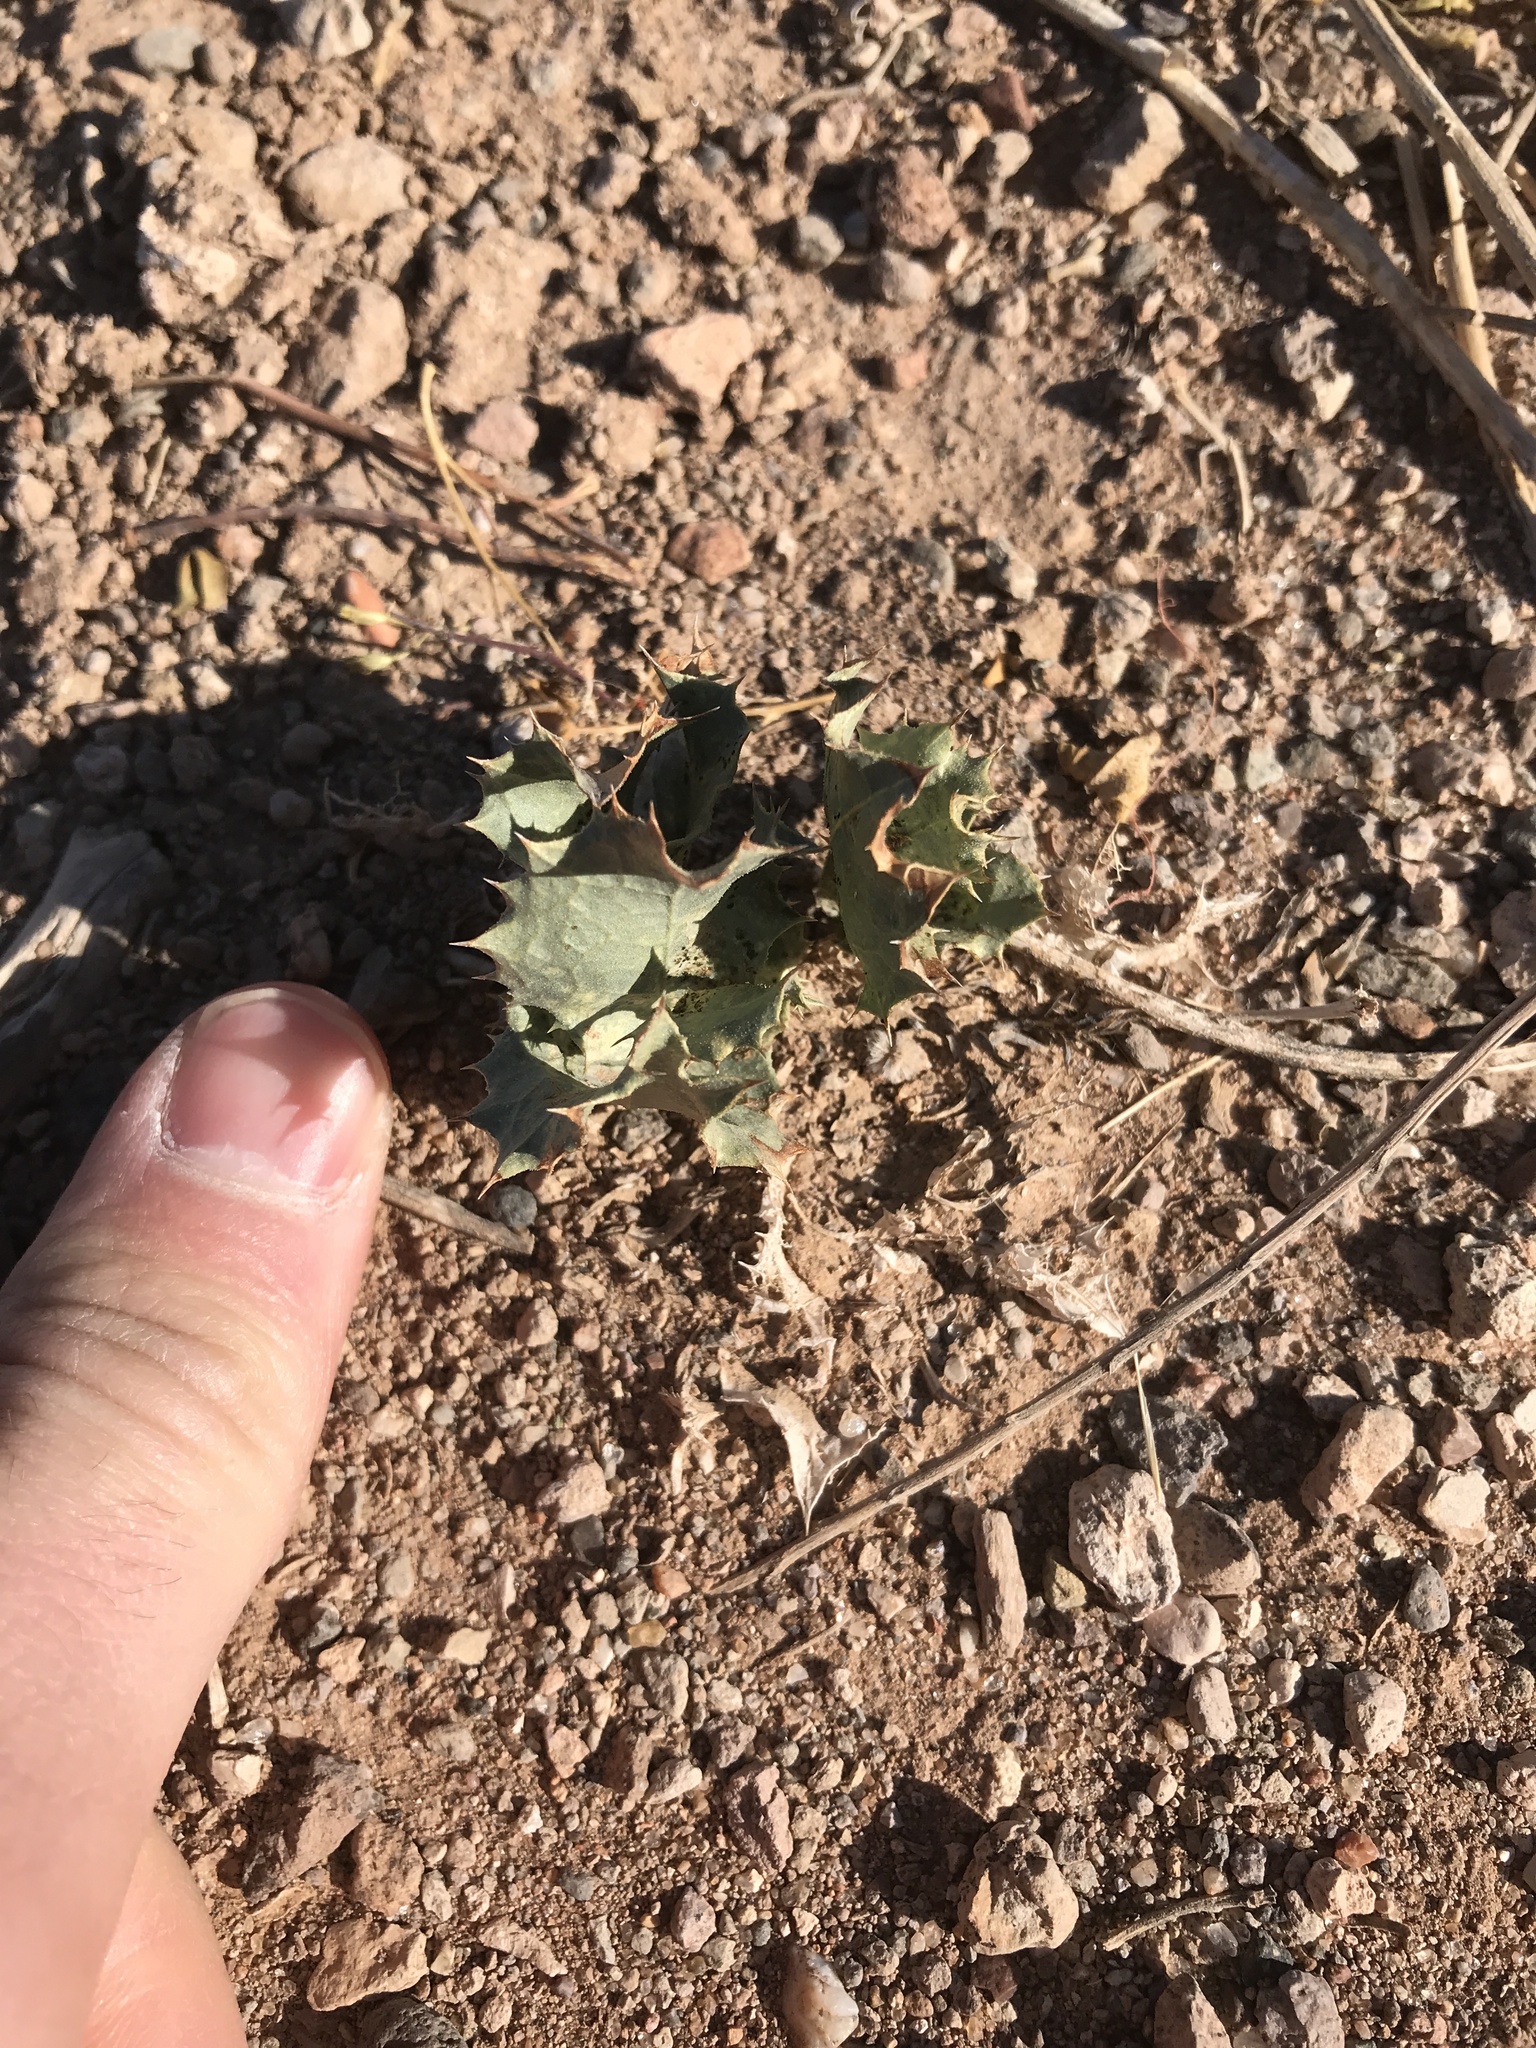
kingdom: Plantae
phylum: Tracheophyta
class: Magnoliopsida
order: Asterales
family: Asteraceae
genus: Acourtia
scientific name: Acourtia nana
